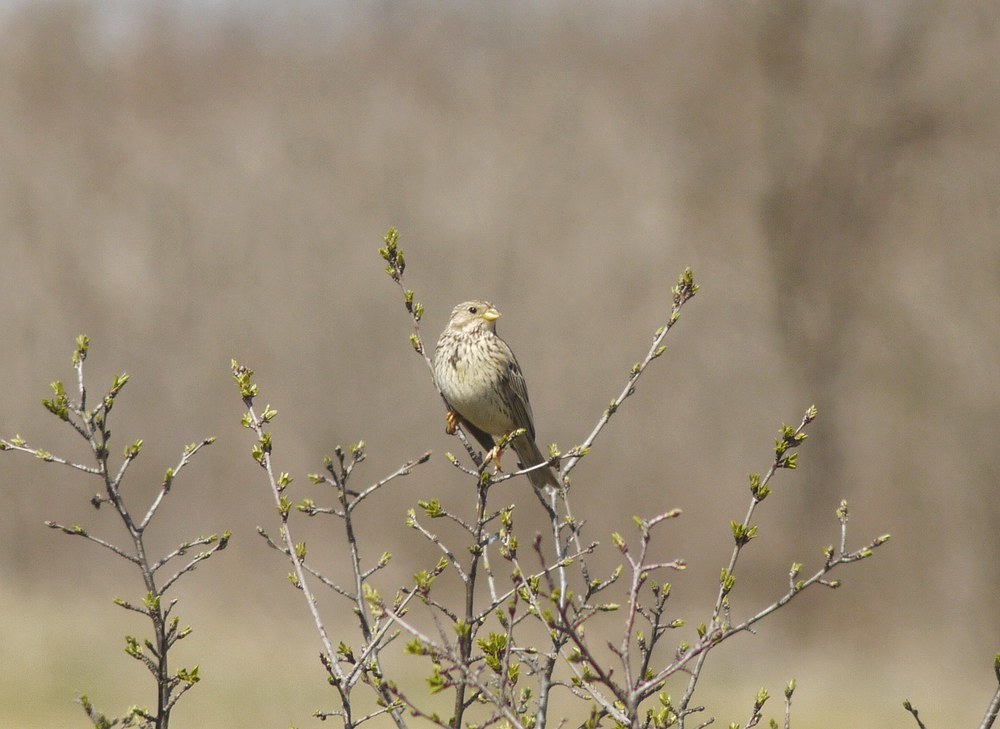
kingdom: Animalia
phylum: Chordata
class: Aves
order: Passeriformes
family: Emberizidae
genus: Emberiza
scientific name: Emberiza calandra
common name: Corn bunting
